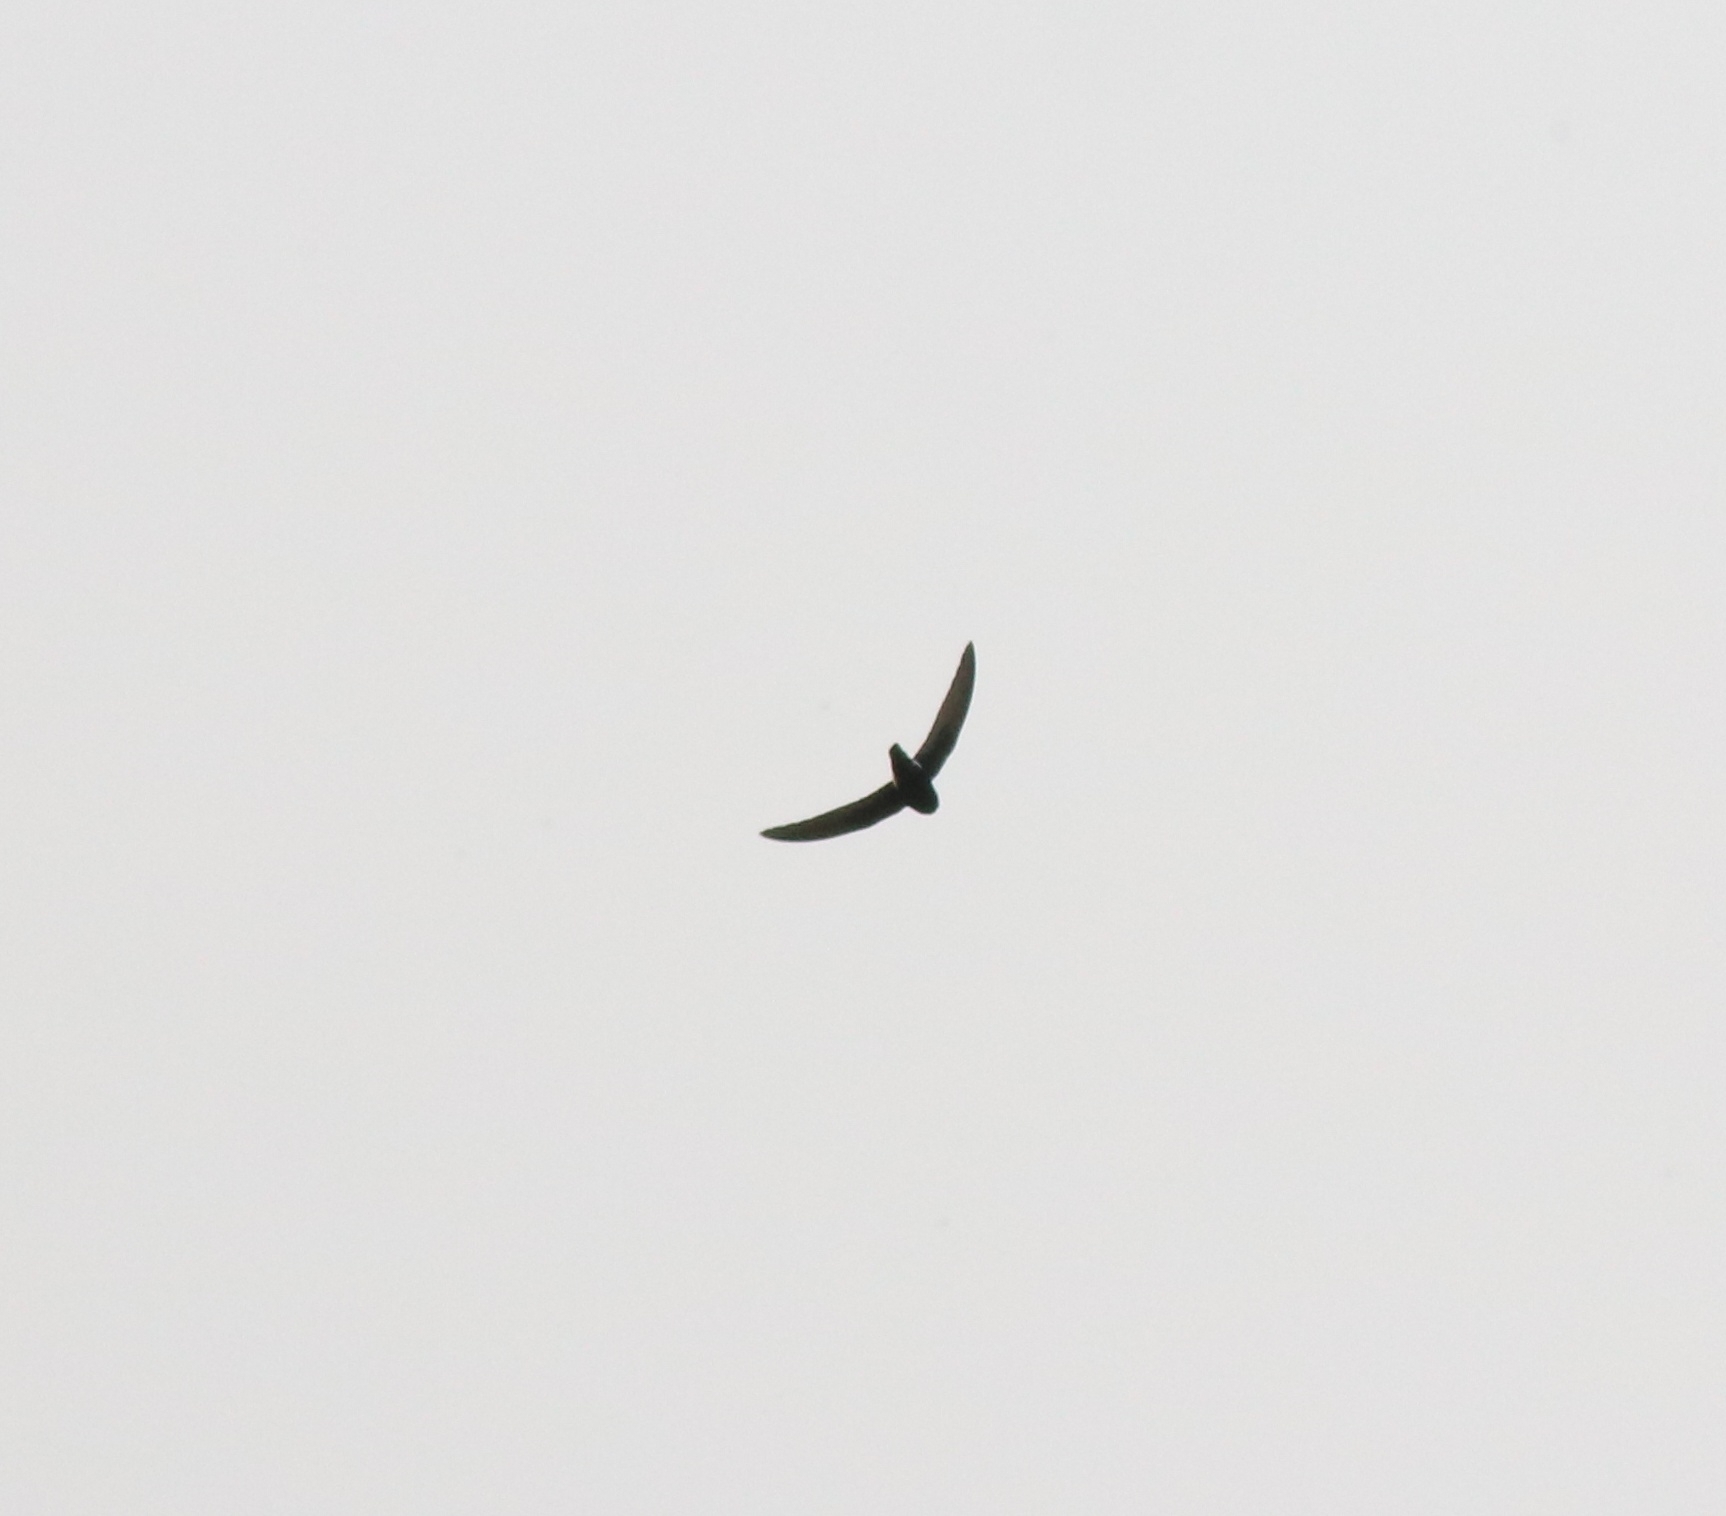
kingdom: Animalia
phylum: Chordata
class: Aves
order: Apodiformes
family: Apodidae
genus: Apus
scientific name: Apus affinis
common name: Little swift
